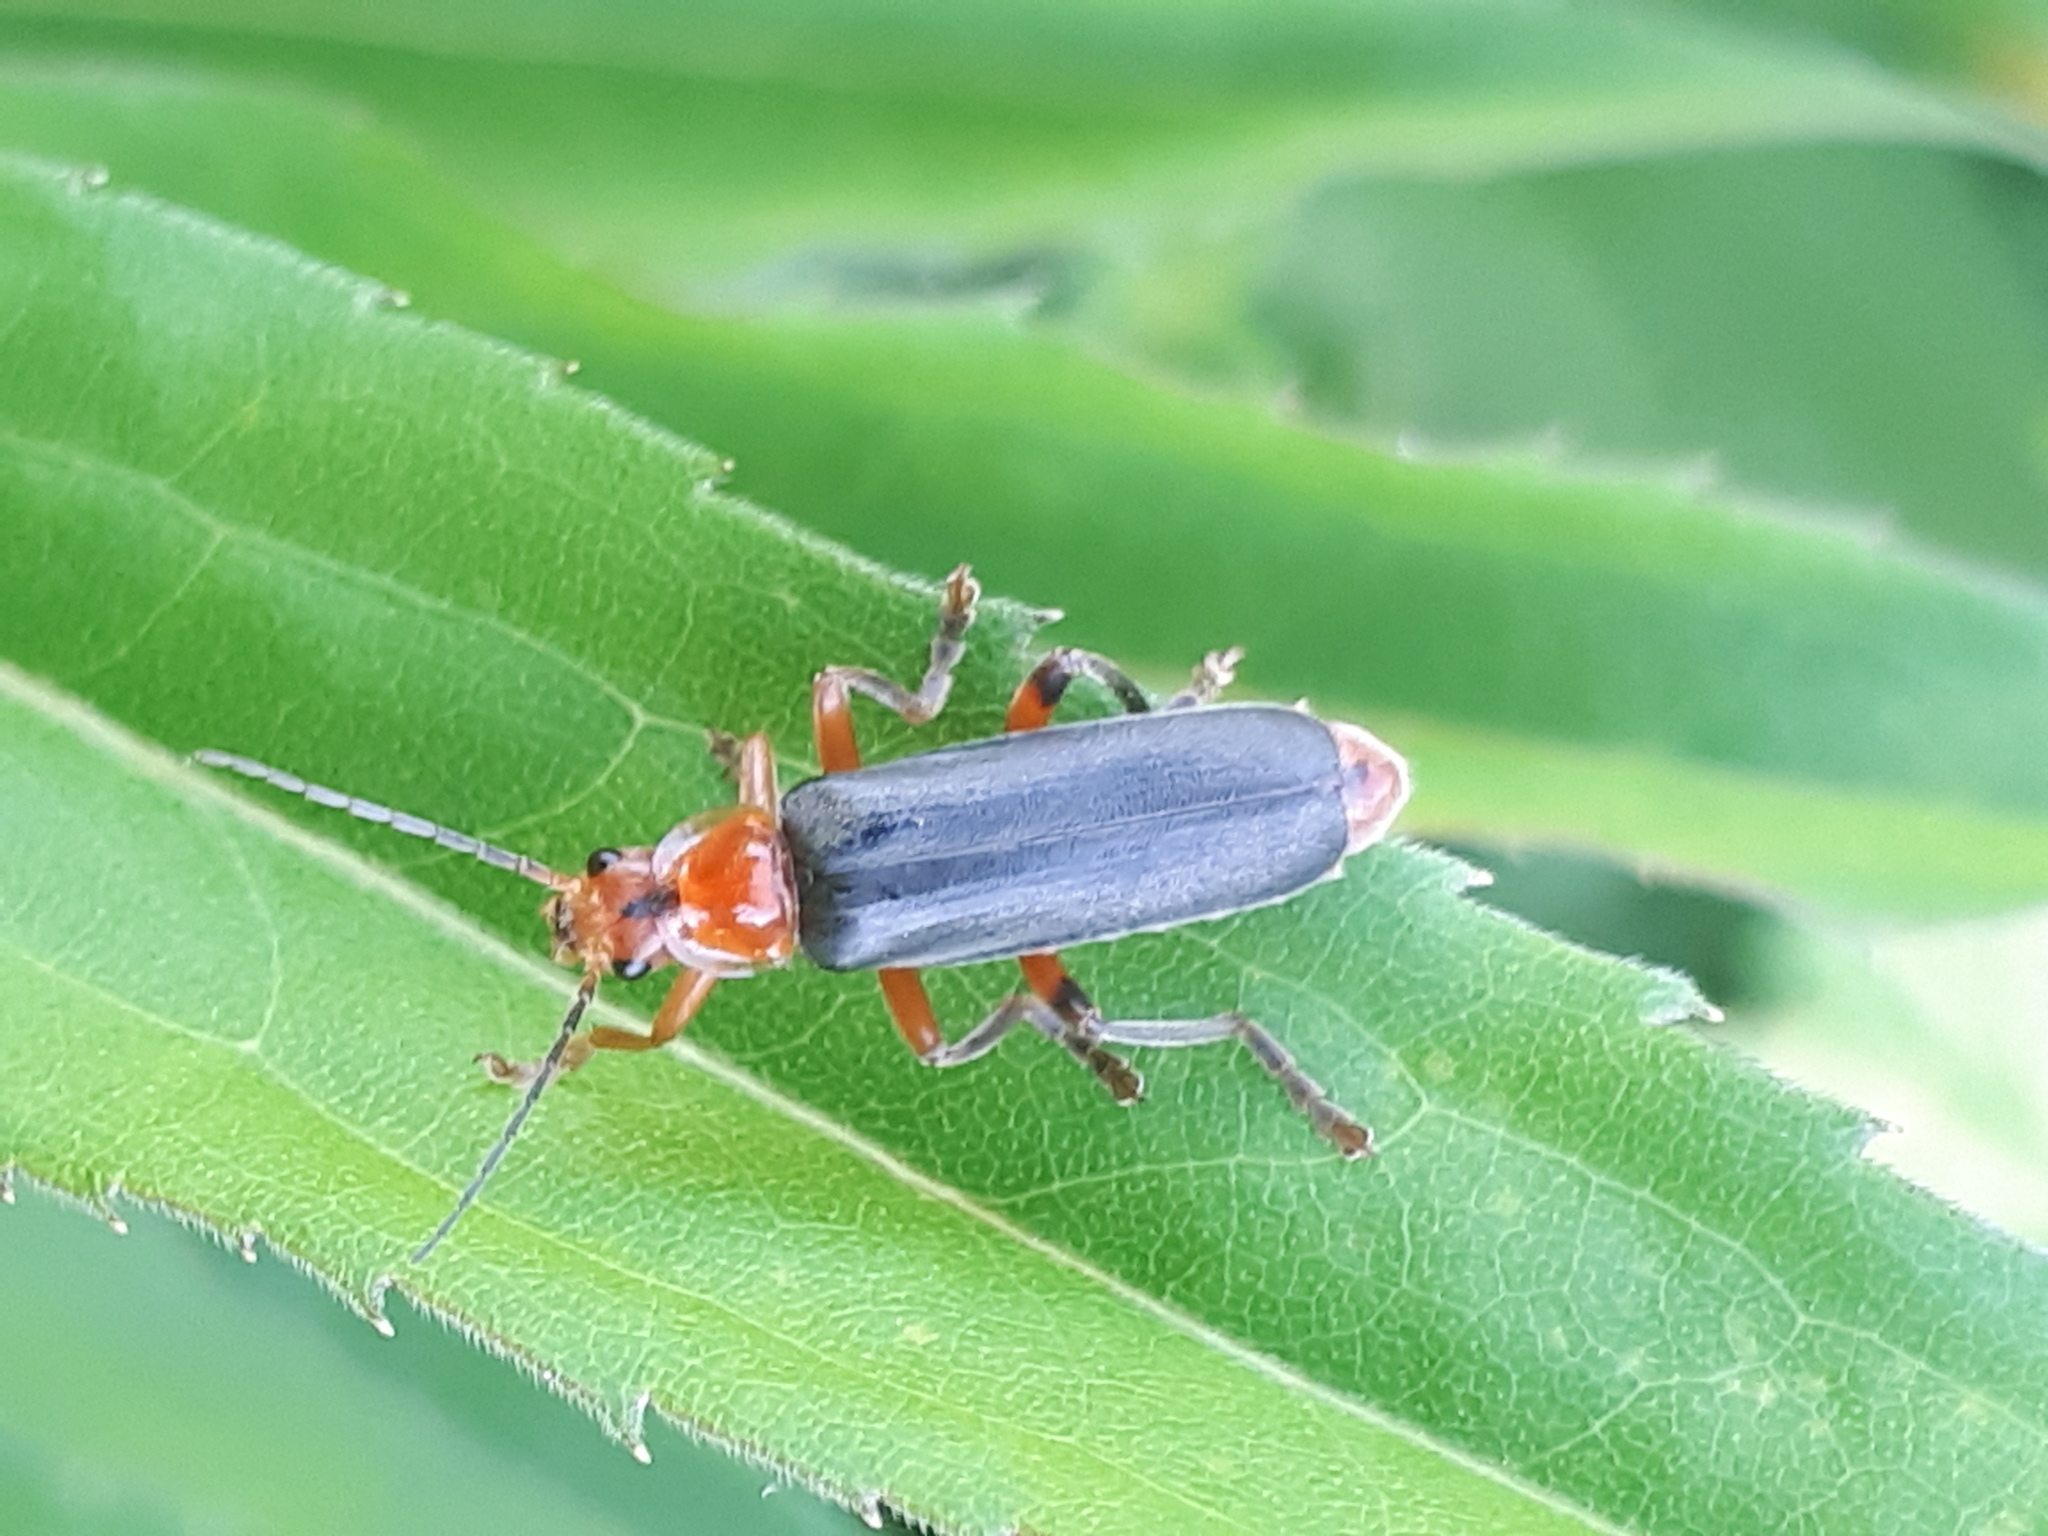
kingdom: Animalia
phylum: Arthropoda
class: Insecta
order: Coleoptera
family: Cantharidae
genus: Cantharis
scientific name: Cantharis livida
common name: Livid soldier beetle
